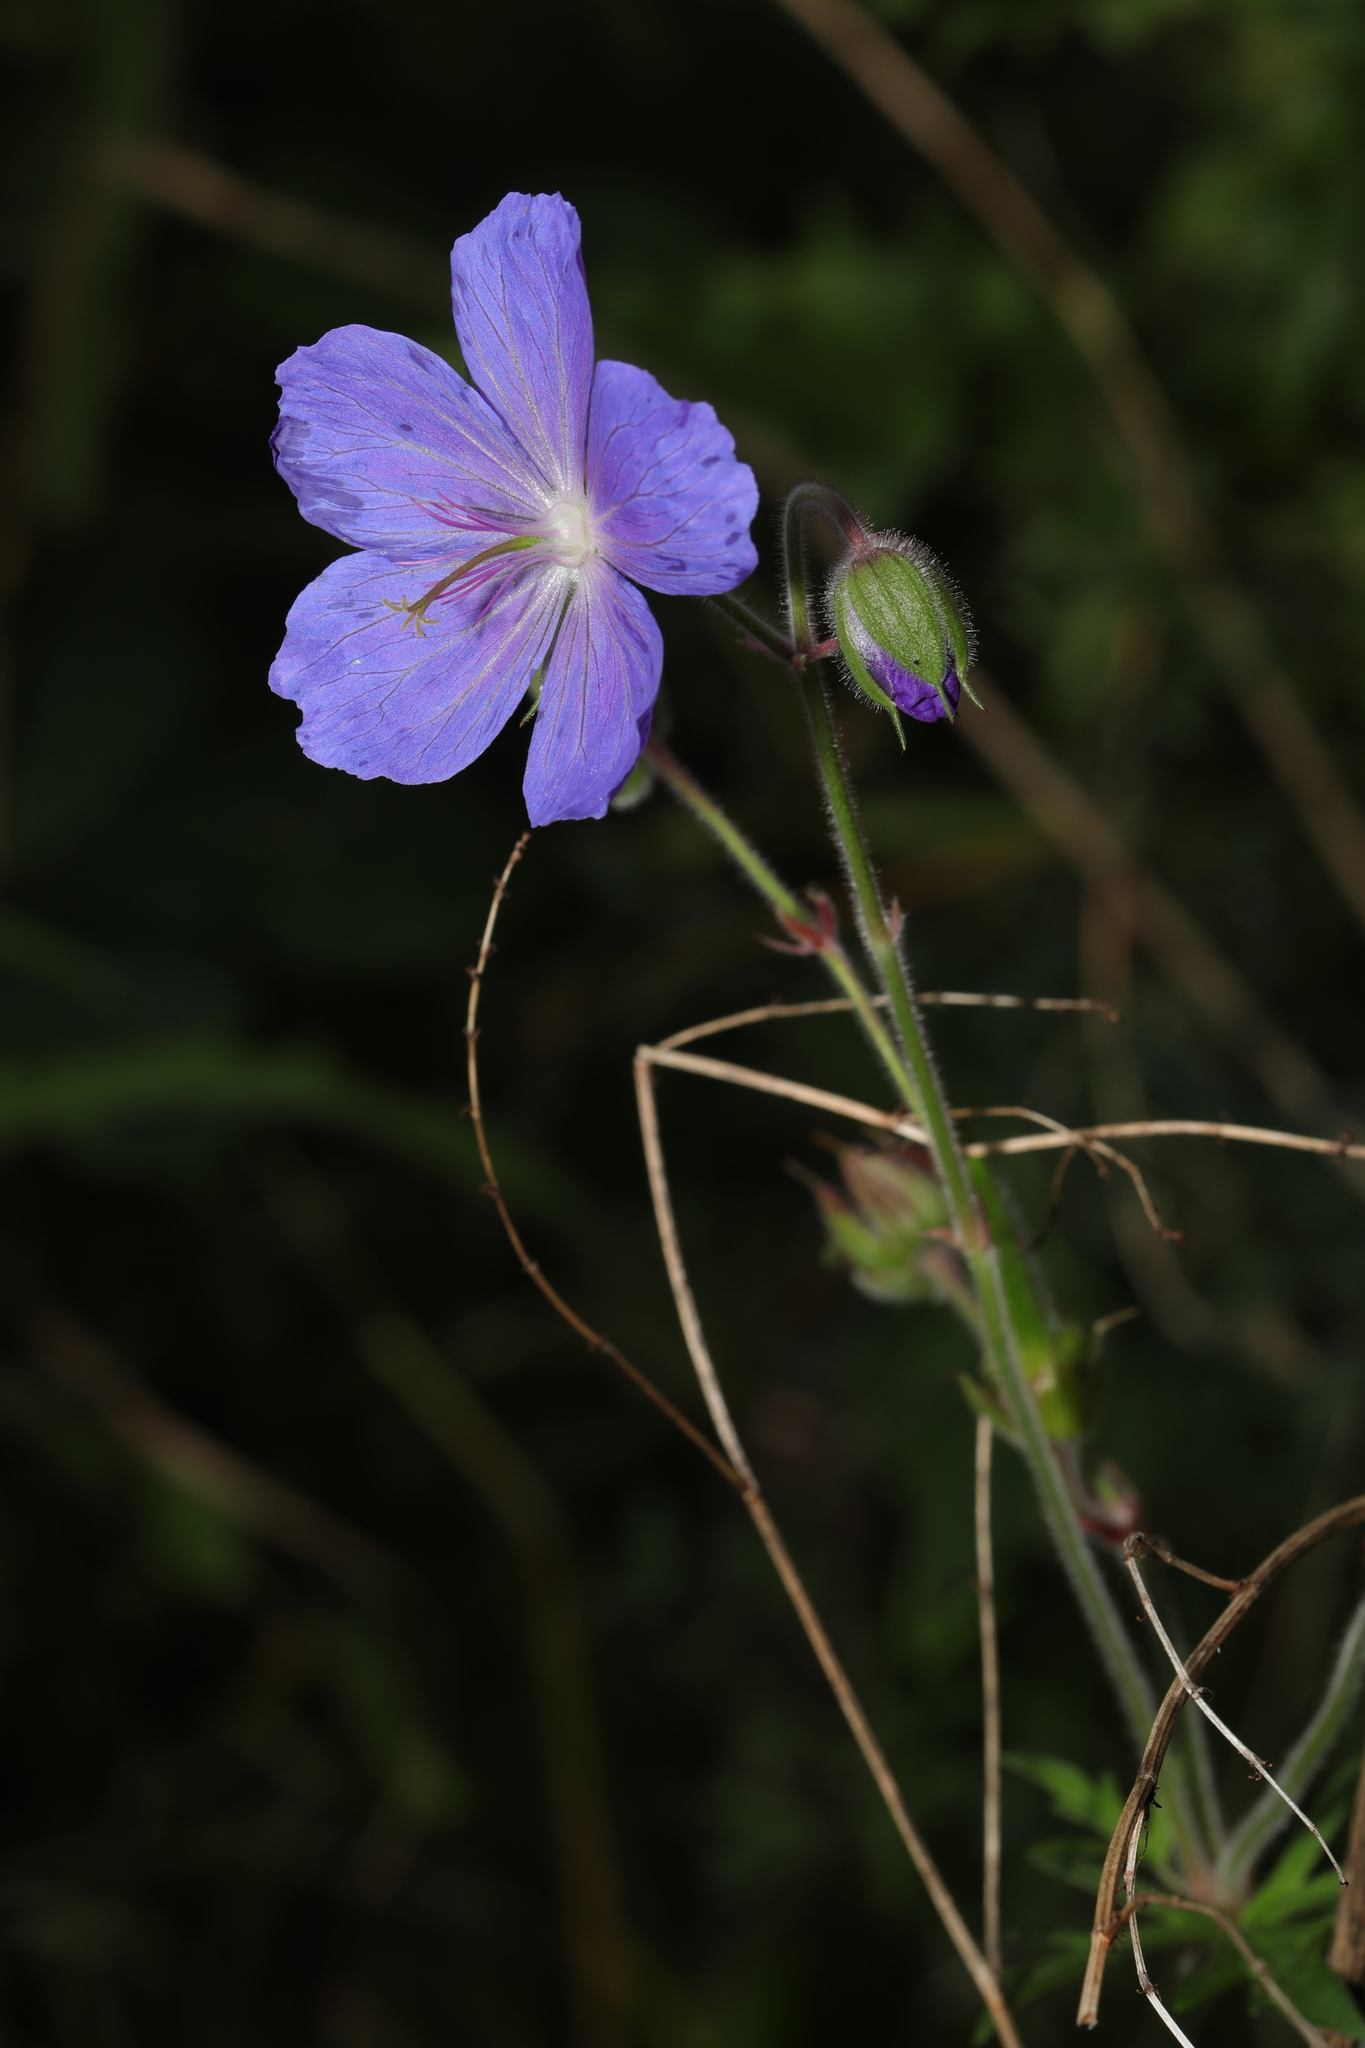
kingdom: Plantae
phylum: Tracheophyta
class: Magnoliopsida
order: Geraniales
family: Geraniaceae
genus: Geranium
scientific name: Geranium pratense
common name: Meadow crane's-bill
